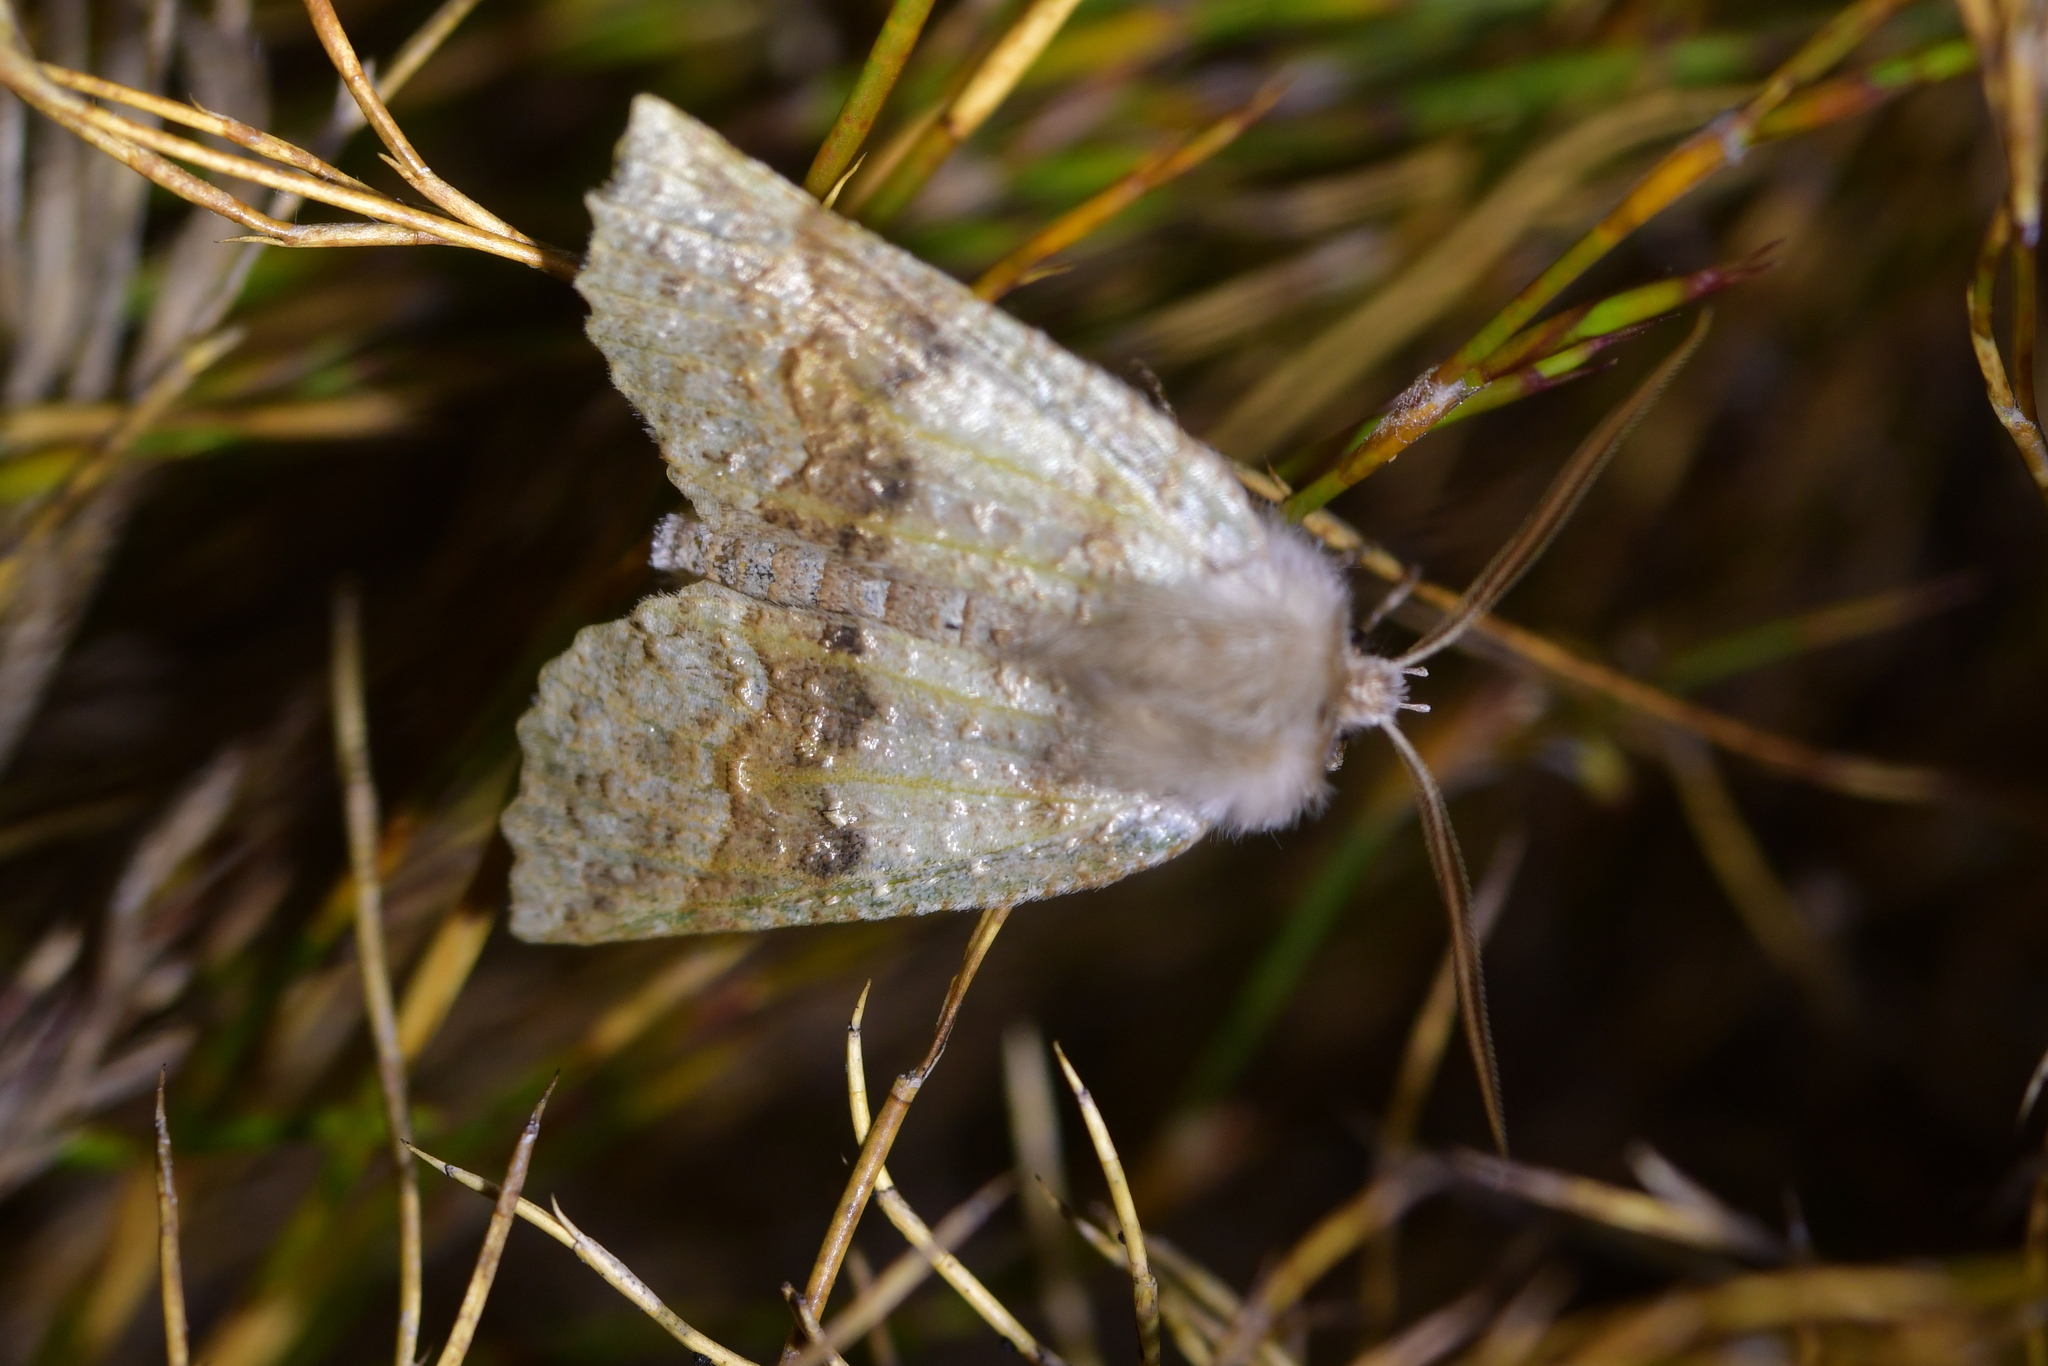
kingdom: Animalia
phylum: Arthropoda
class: Insecta
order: Lepidoptera
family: Geometridae
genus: Declana
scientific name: Declana floccosa
